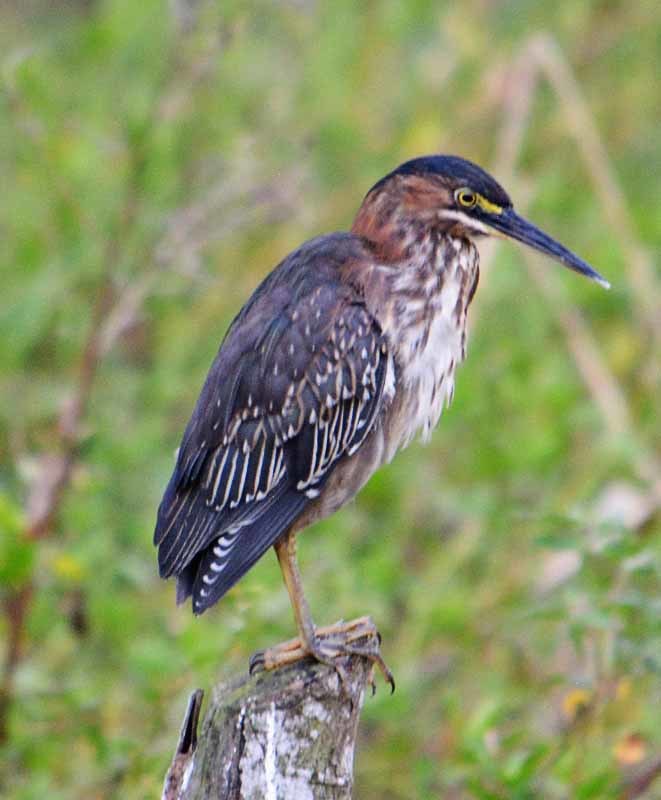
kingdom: Animalia
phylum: Chordata
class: Aves
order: Pelecaniformes
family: Ardeidae
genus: Butorides
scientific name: Butorides virescens
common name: Green heron
